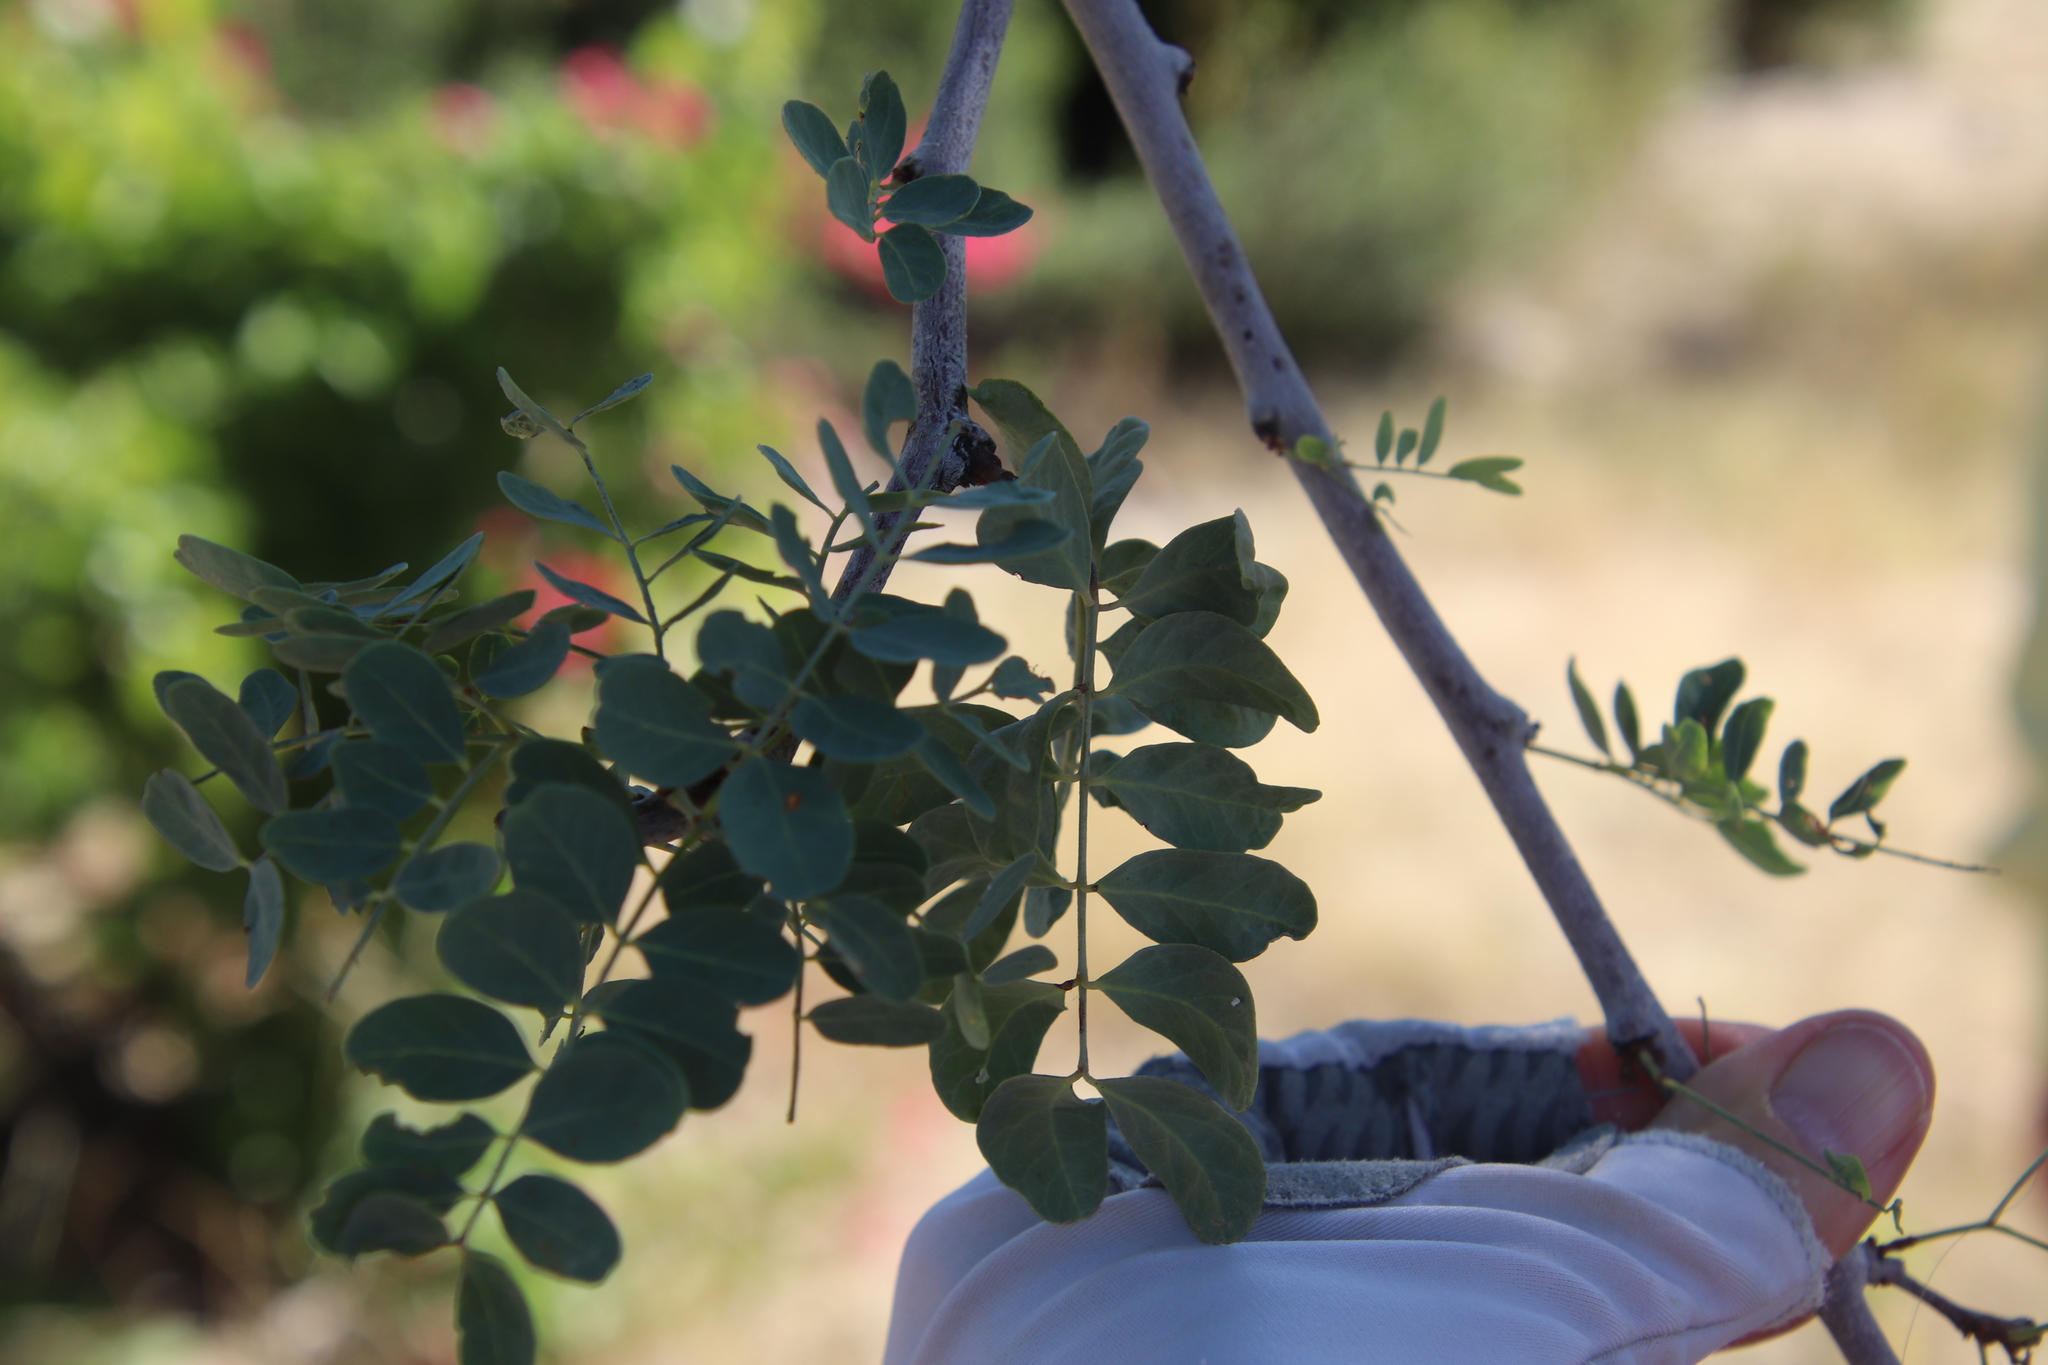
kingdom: Plantae
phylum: Tracheophyta
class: Magnoliopsida
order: Fabales
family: Fabaceae
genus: Lysiloma
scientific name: Lysiloma candidum
